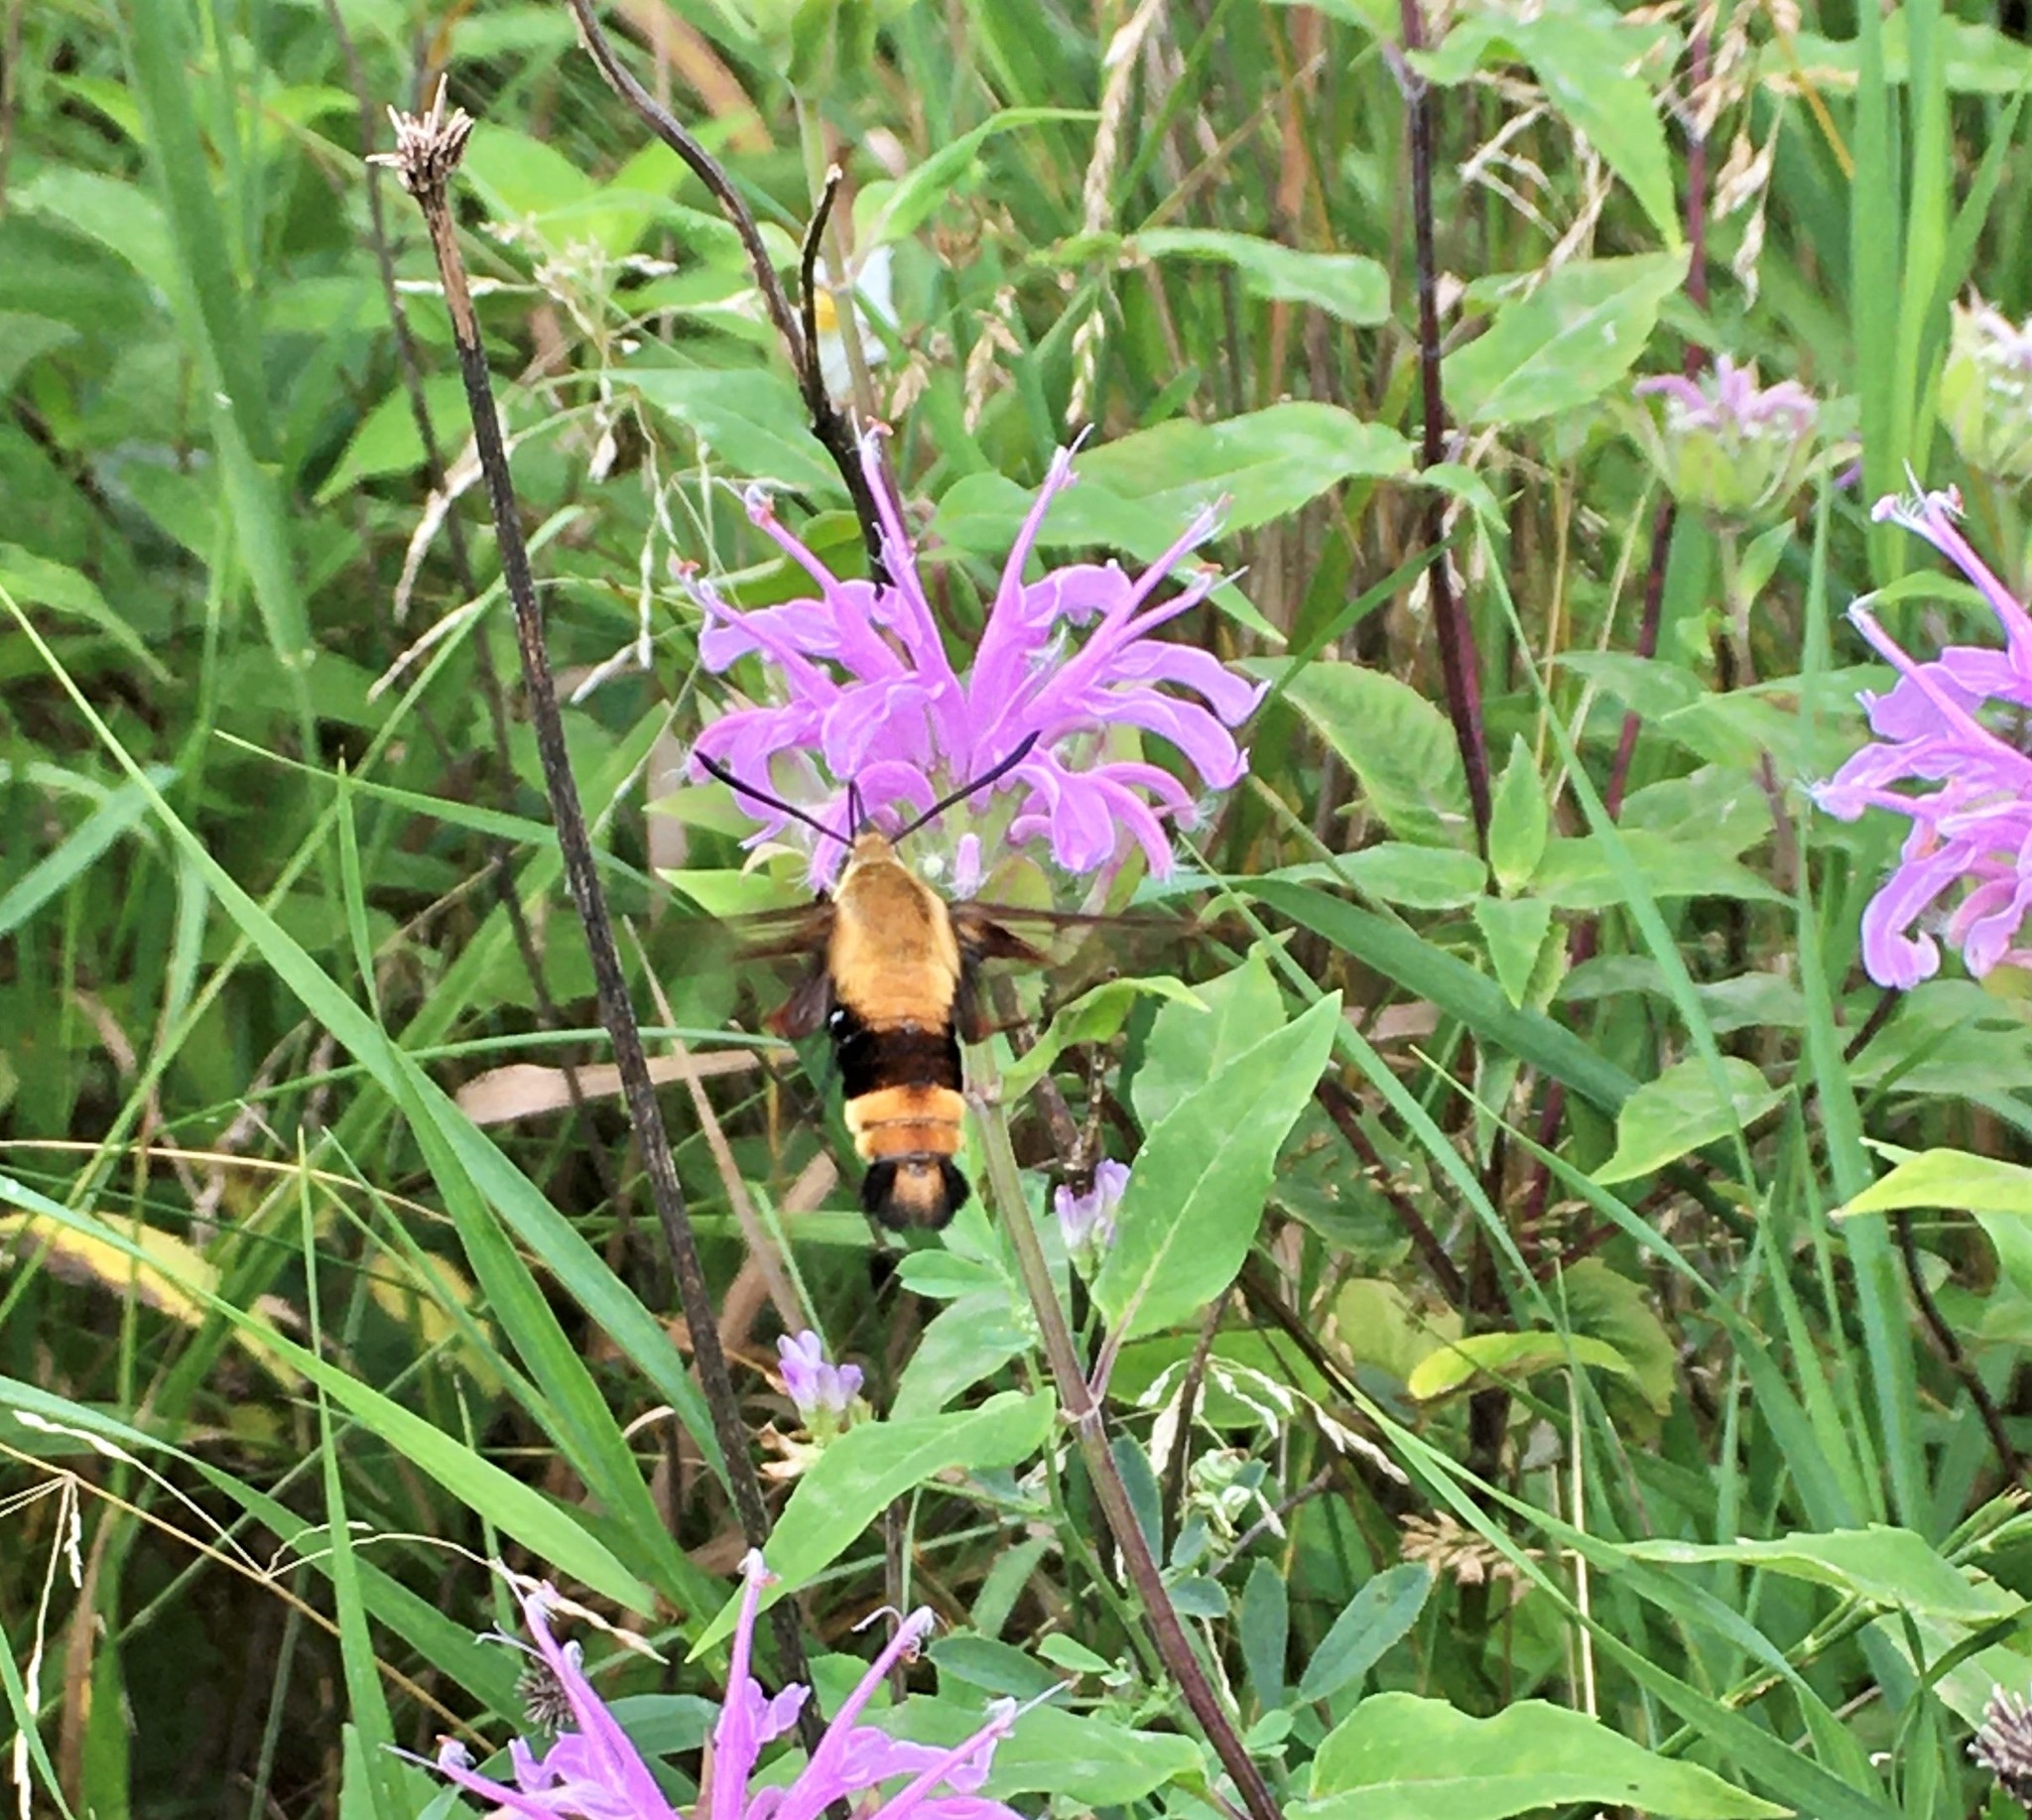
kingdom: Animalia
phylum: Arthropoda
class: Insecta
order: Lepidoptera
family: Sphingidae
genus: Hemaris
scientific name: Hemaris diffinis
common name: Bumblebee moth
